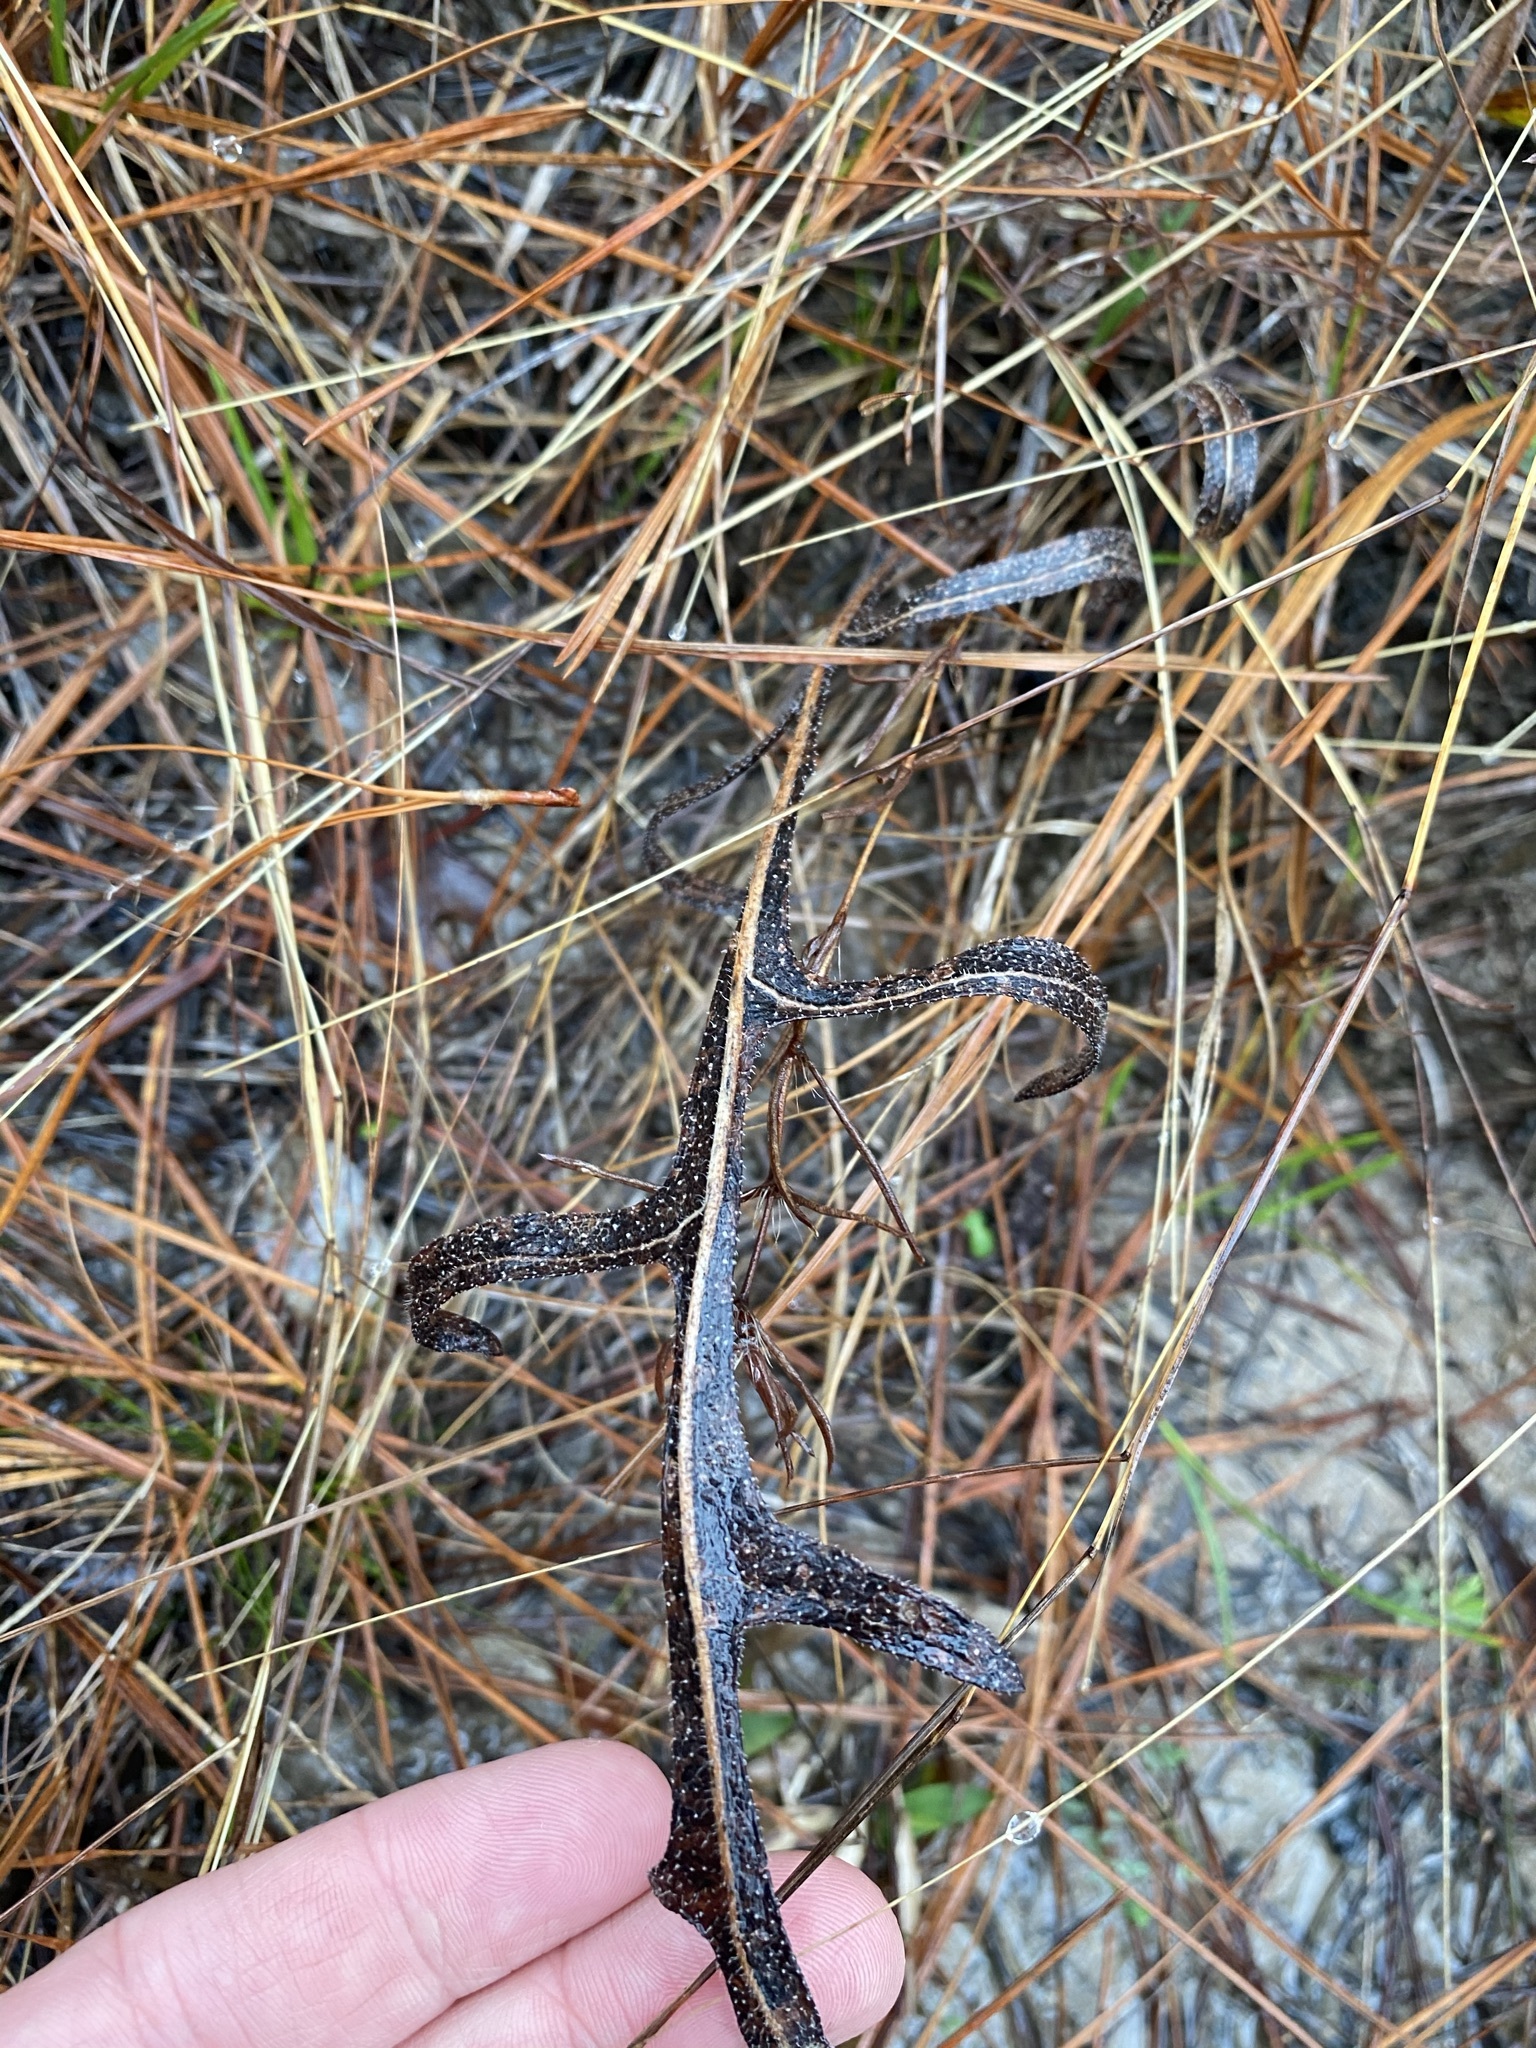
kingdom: Plantae
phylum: Tracheophyta
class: Magnoliopsida
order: Asterales
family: Asteraceae
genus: Silphium
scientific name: Silphium laciniatum
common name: Polarplant
